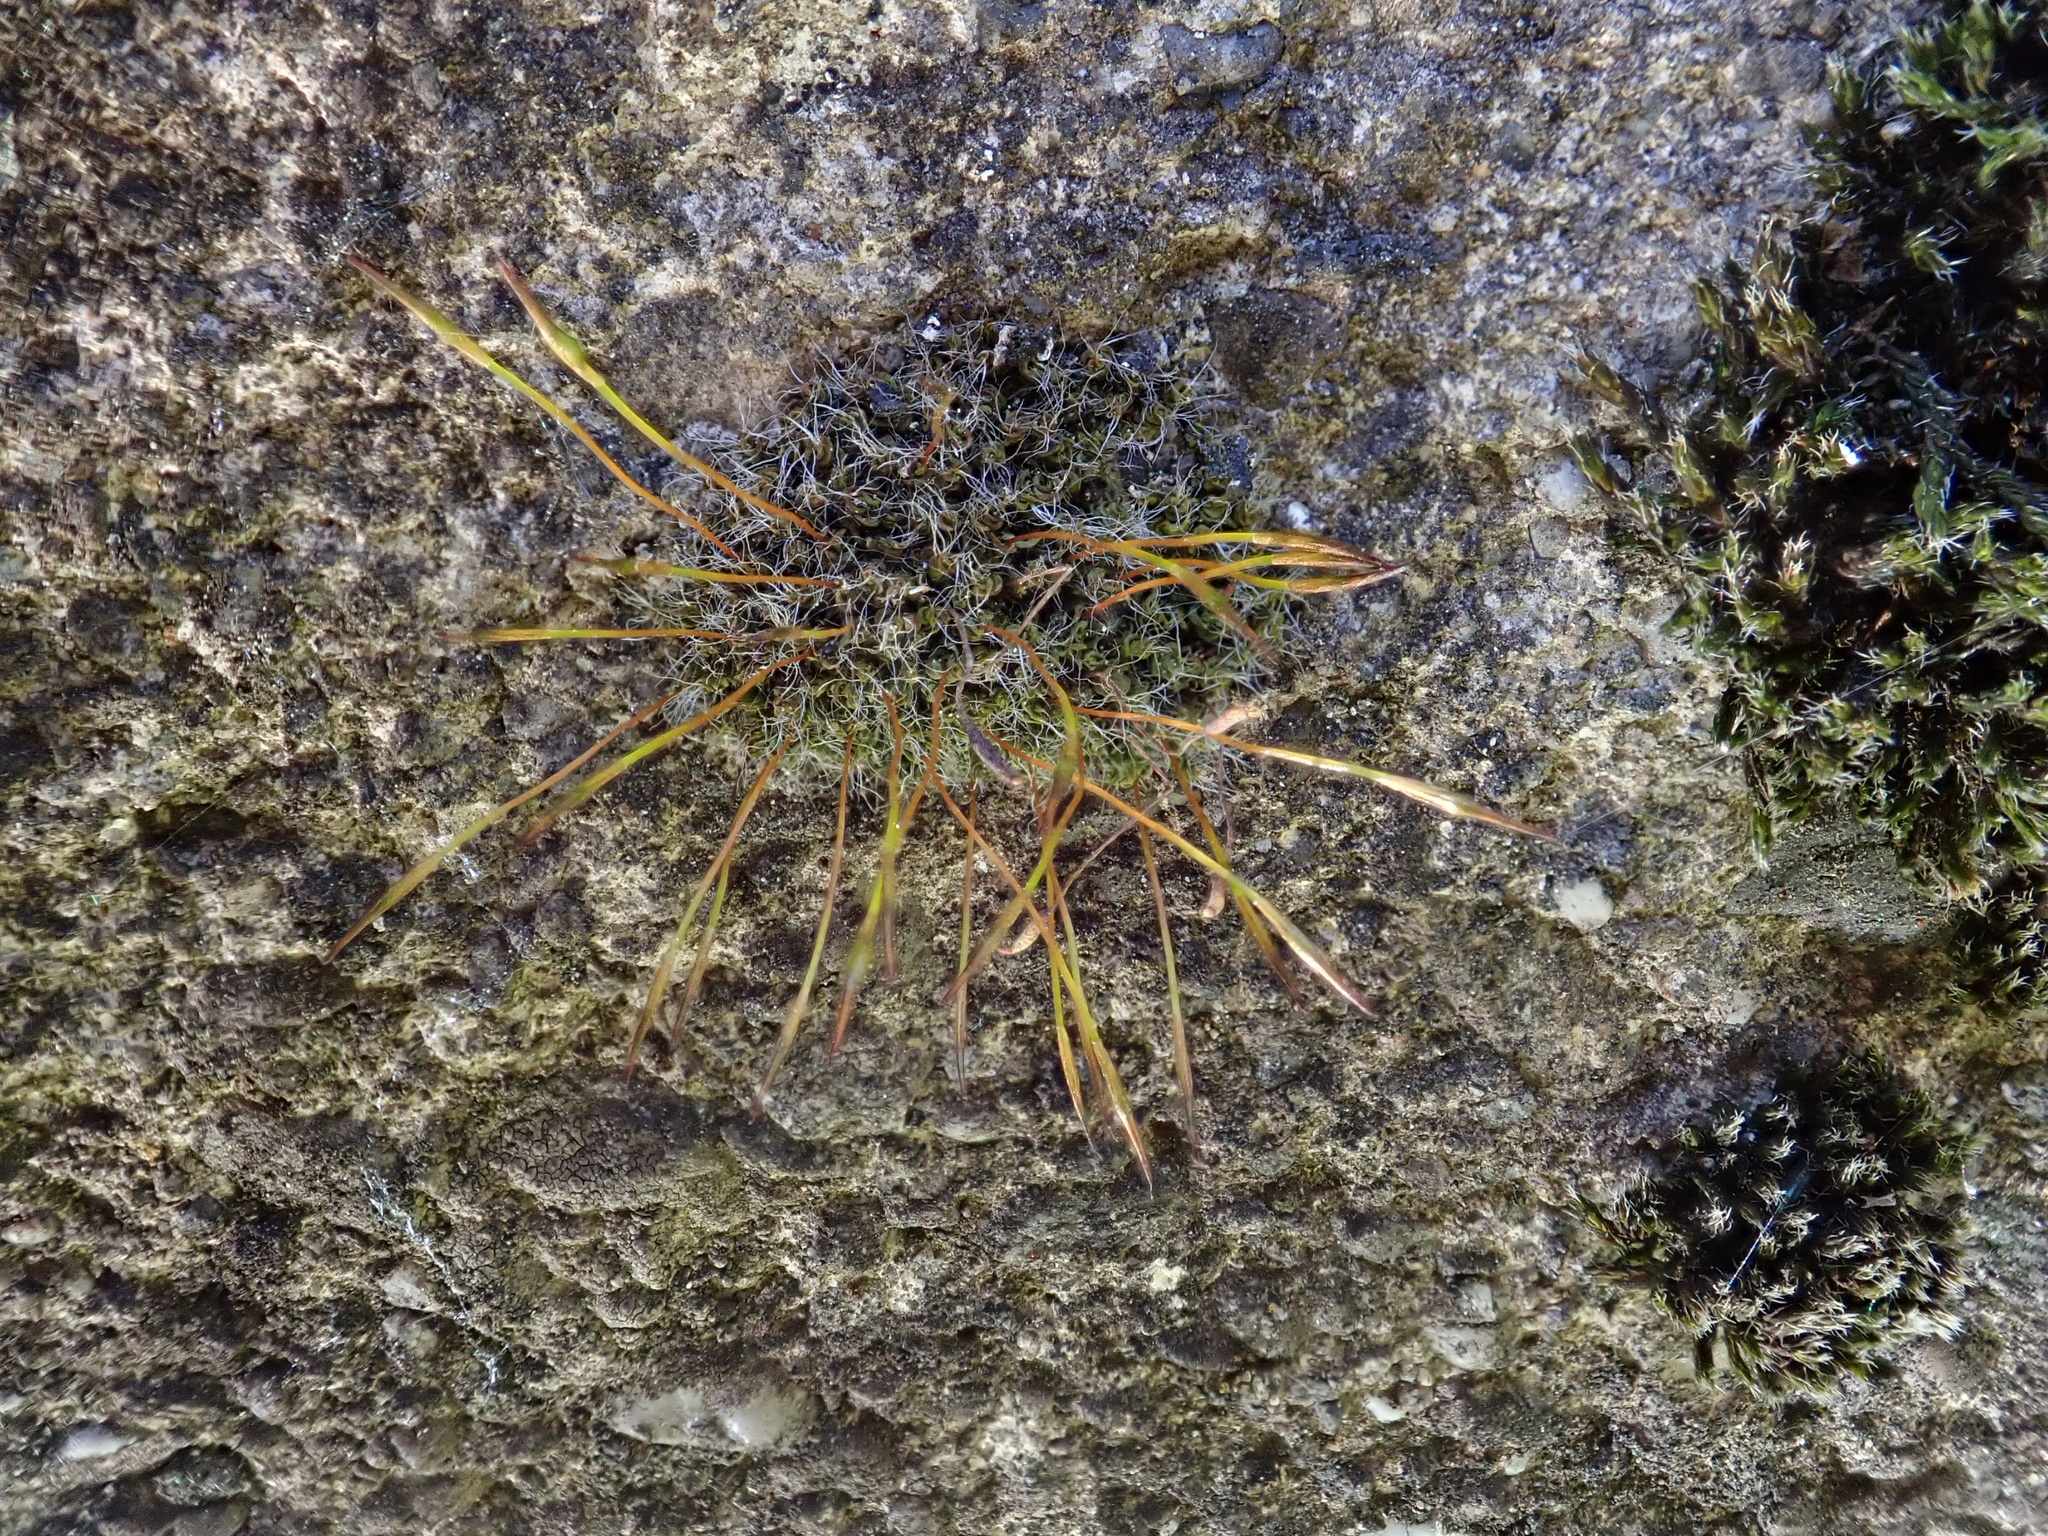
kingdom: Plantae
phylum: Bryophyta
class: Bryopsida
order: Pottiales
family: Pottiaceae
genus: Tortula
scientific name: Tortula muralis
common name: Wall screw-moss
